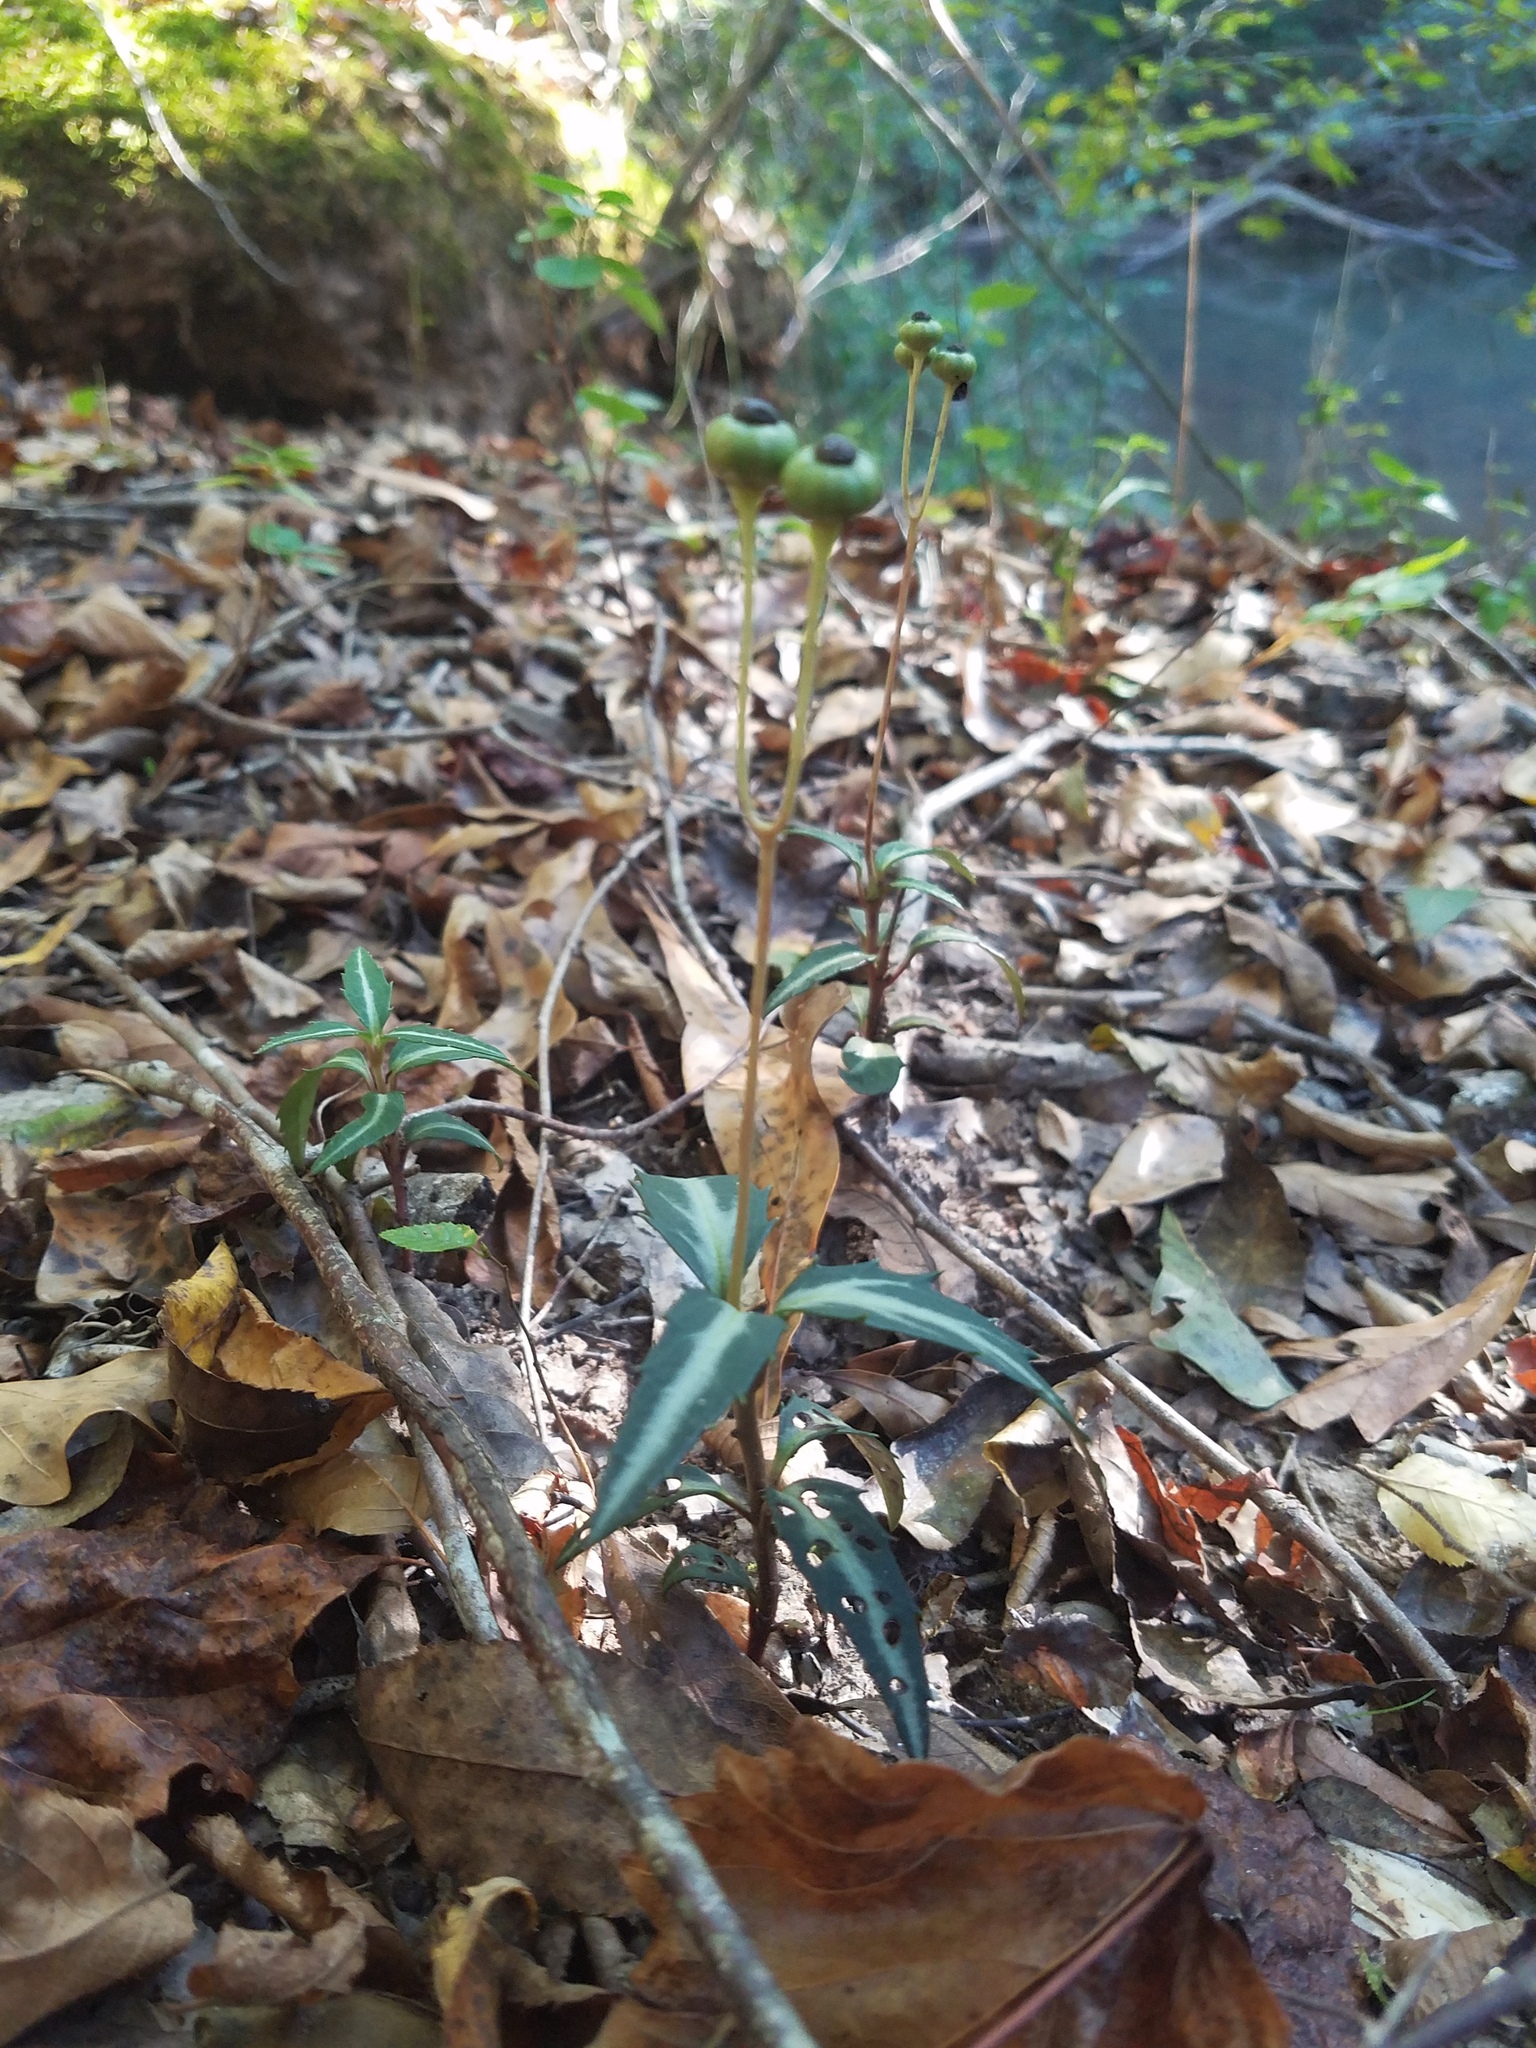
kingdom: Plantae
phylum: Tracheophyta
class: Magnoliopsida
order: Ericales
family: Ericaceae
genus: Chimaphila
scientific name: Chimaphila maculata
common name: Spotted pipsissewa
